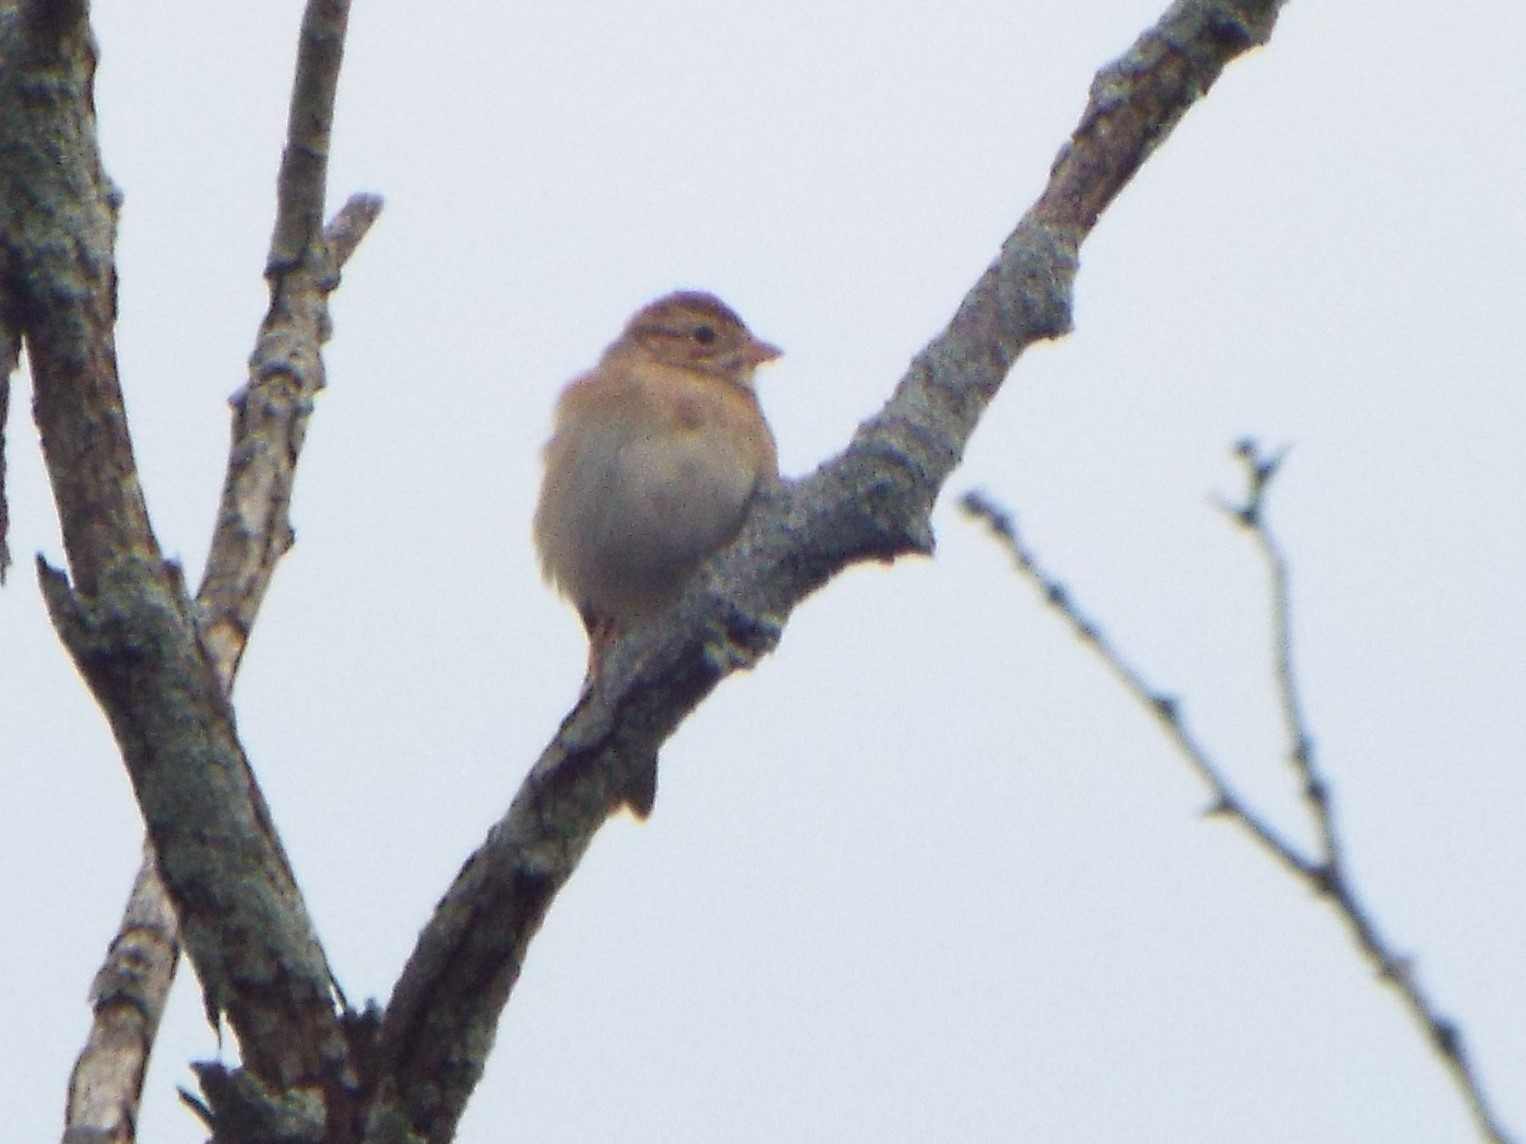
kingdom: Animalia
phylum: Chordata
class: Aves
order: Passeriformes
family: Passerellidae
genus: Spizella
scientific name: Spizella pallida
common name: Clay-colored sparrow
